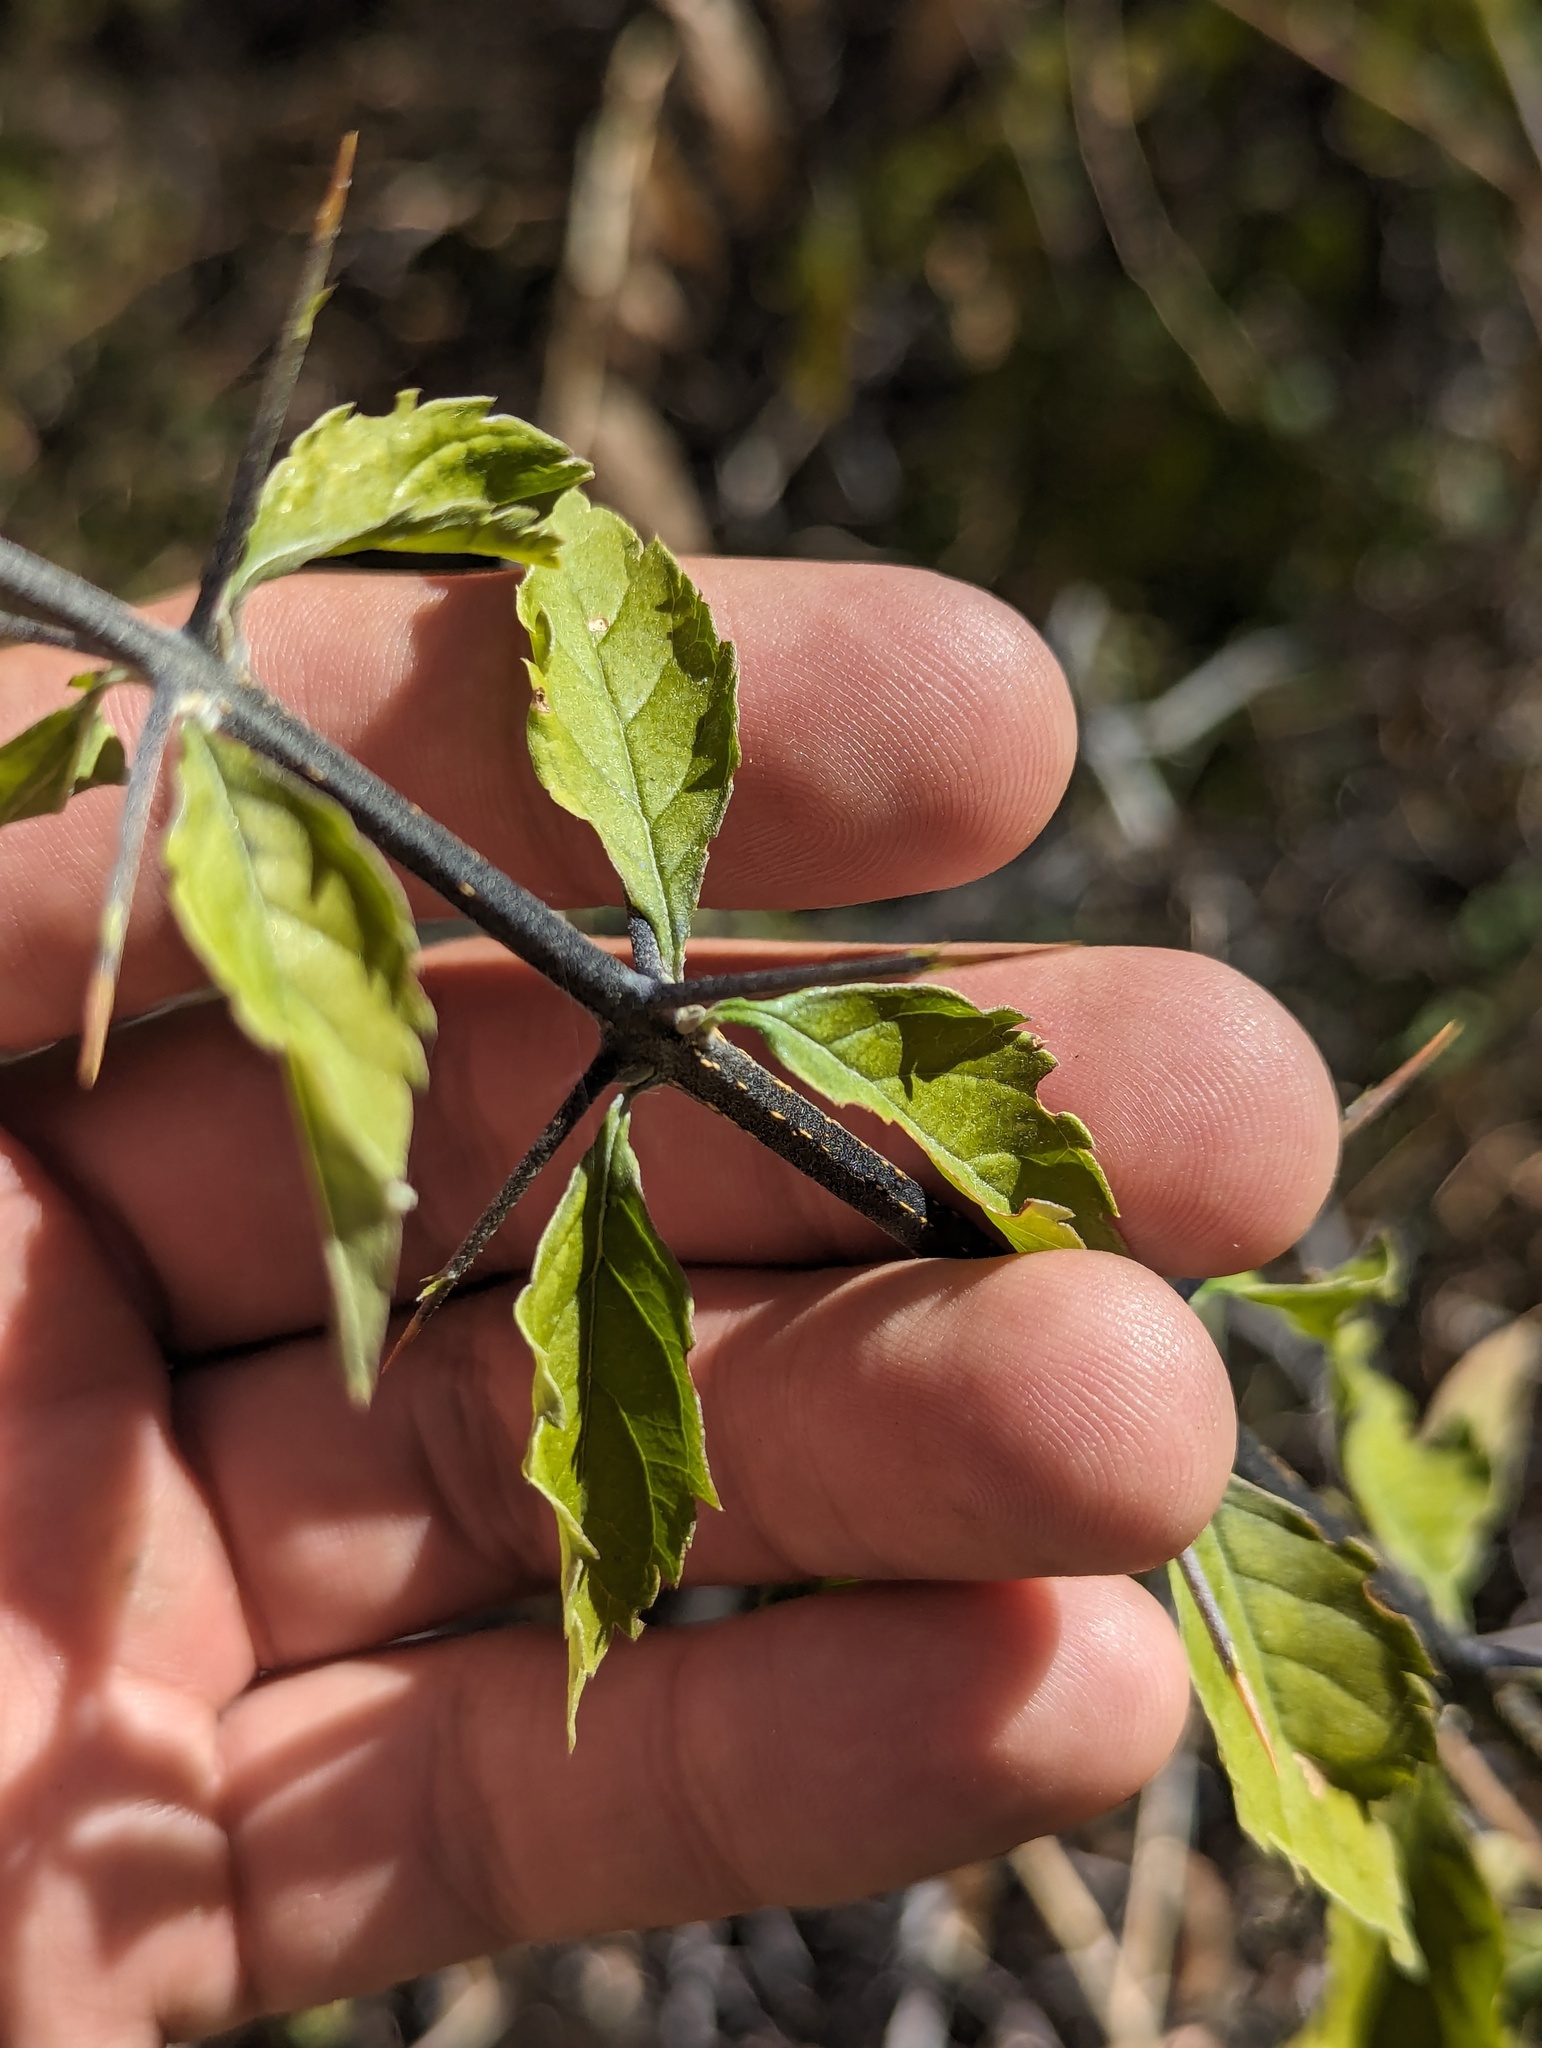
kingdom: Plantae
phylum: Tracheophyta
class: Magnoliopsida
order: Lamiales
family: Verbenaceae
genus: Duranta
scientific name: Duranta erecta
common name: Golden dewdrops
